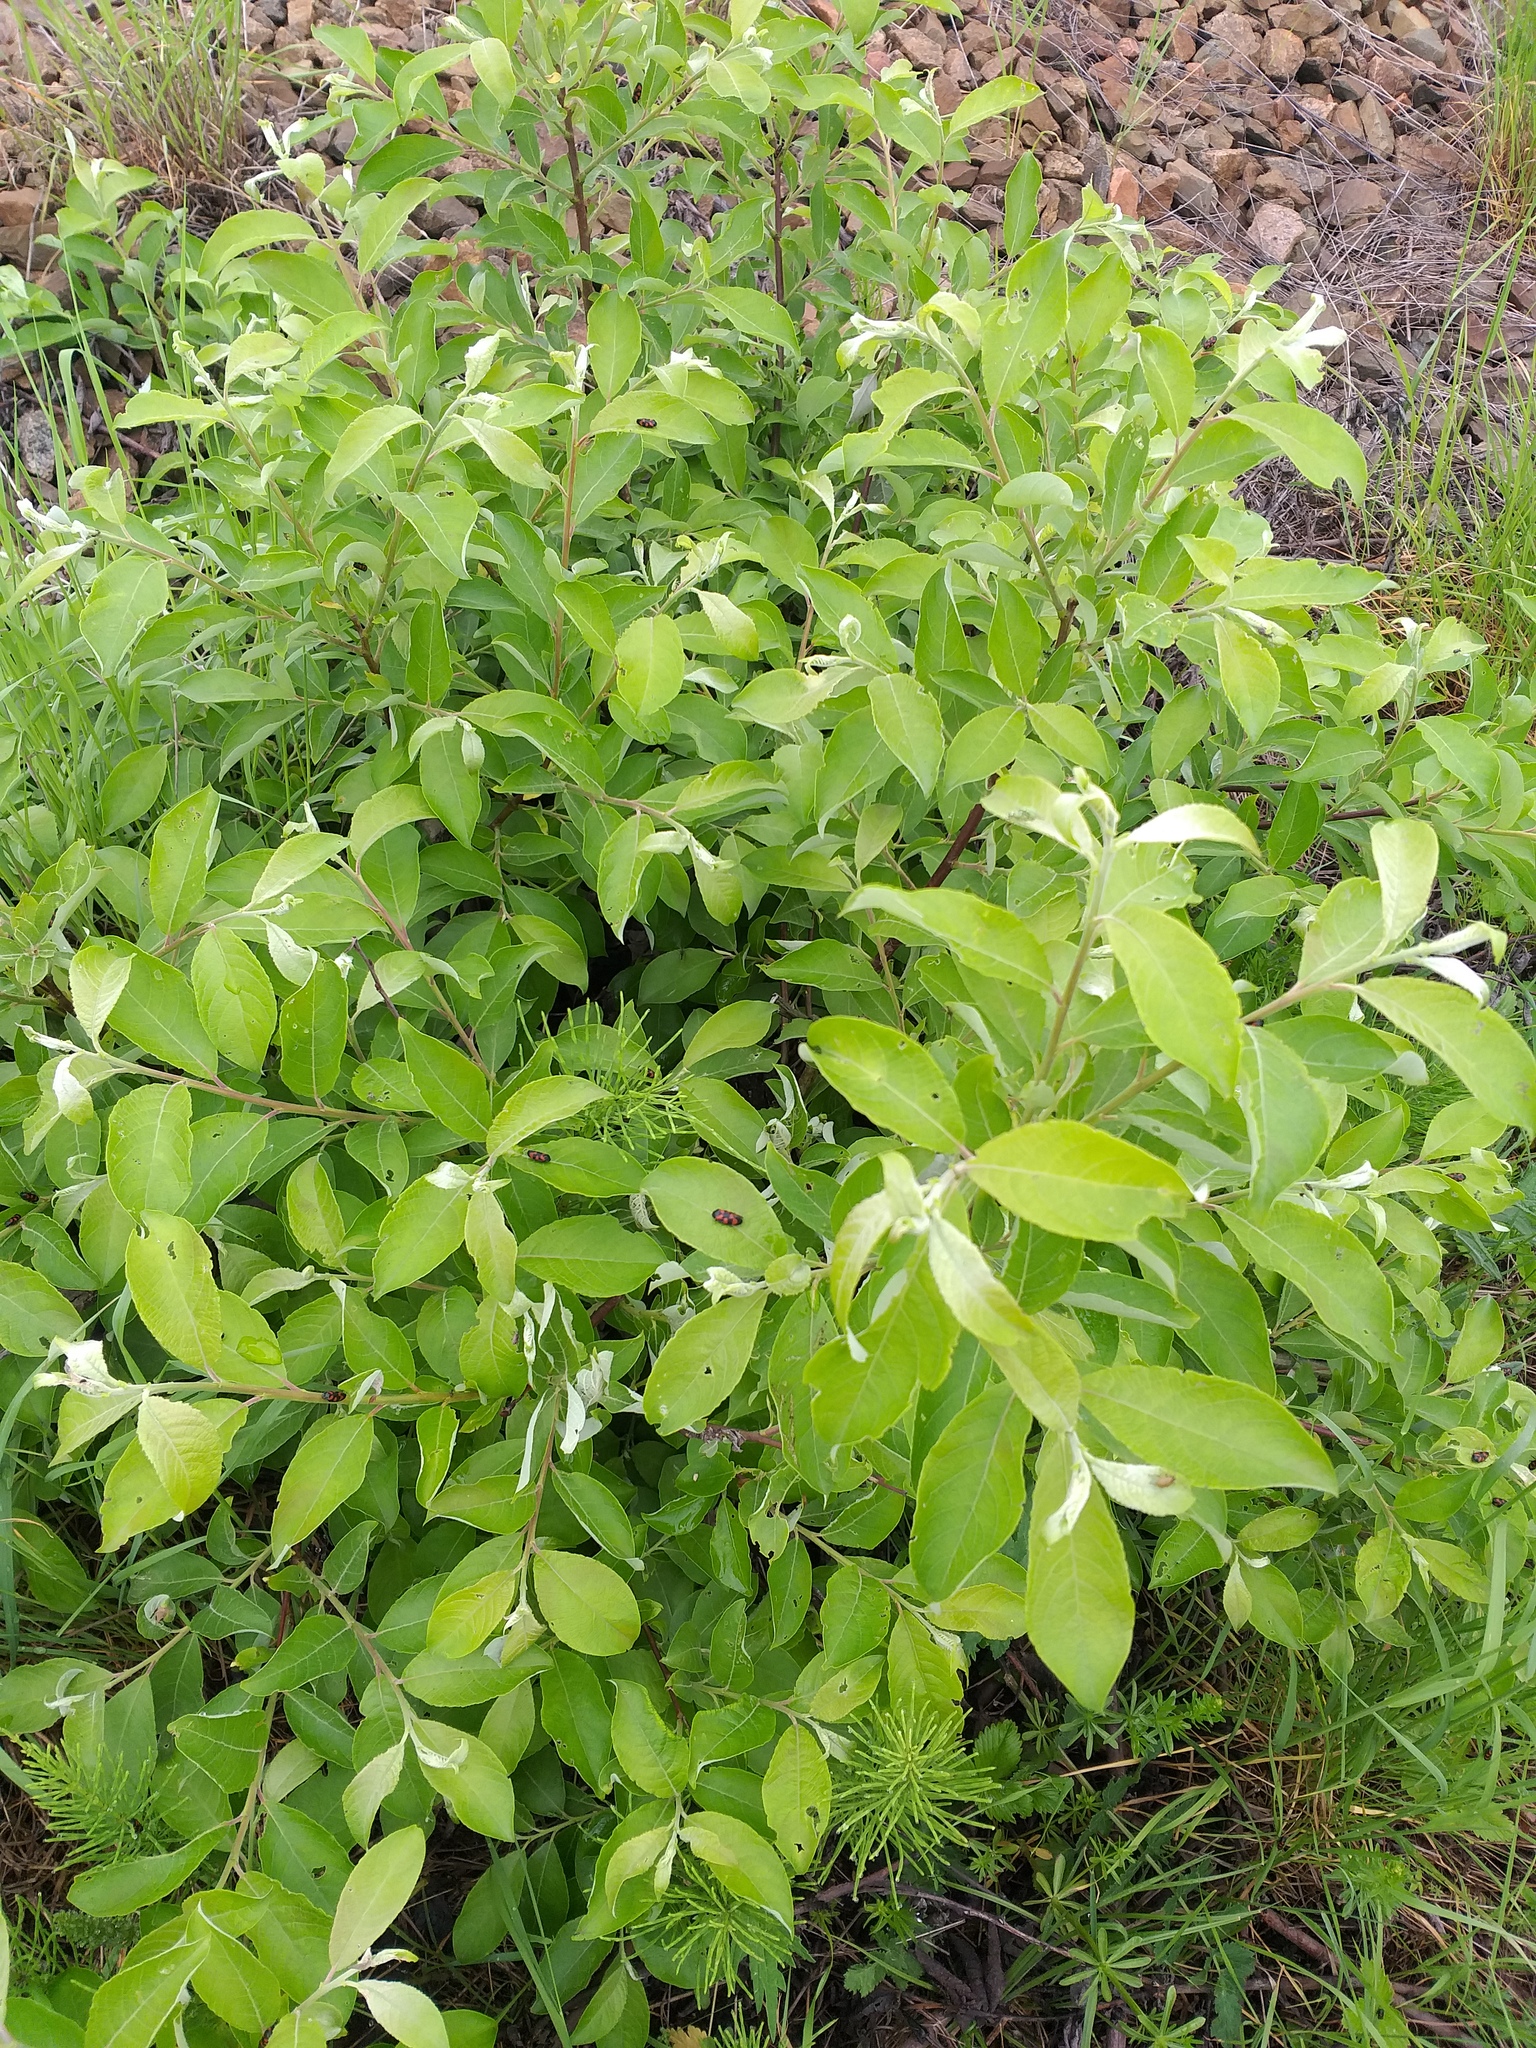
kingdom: Plantae
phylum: Tracheophyta
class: Magnoliopsida
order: Malpighiales
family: Salicaceae
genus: Salix
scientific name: Salix caprea
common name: Goat willow
